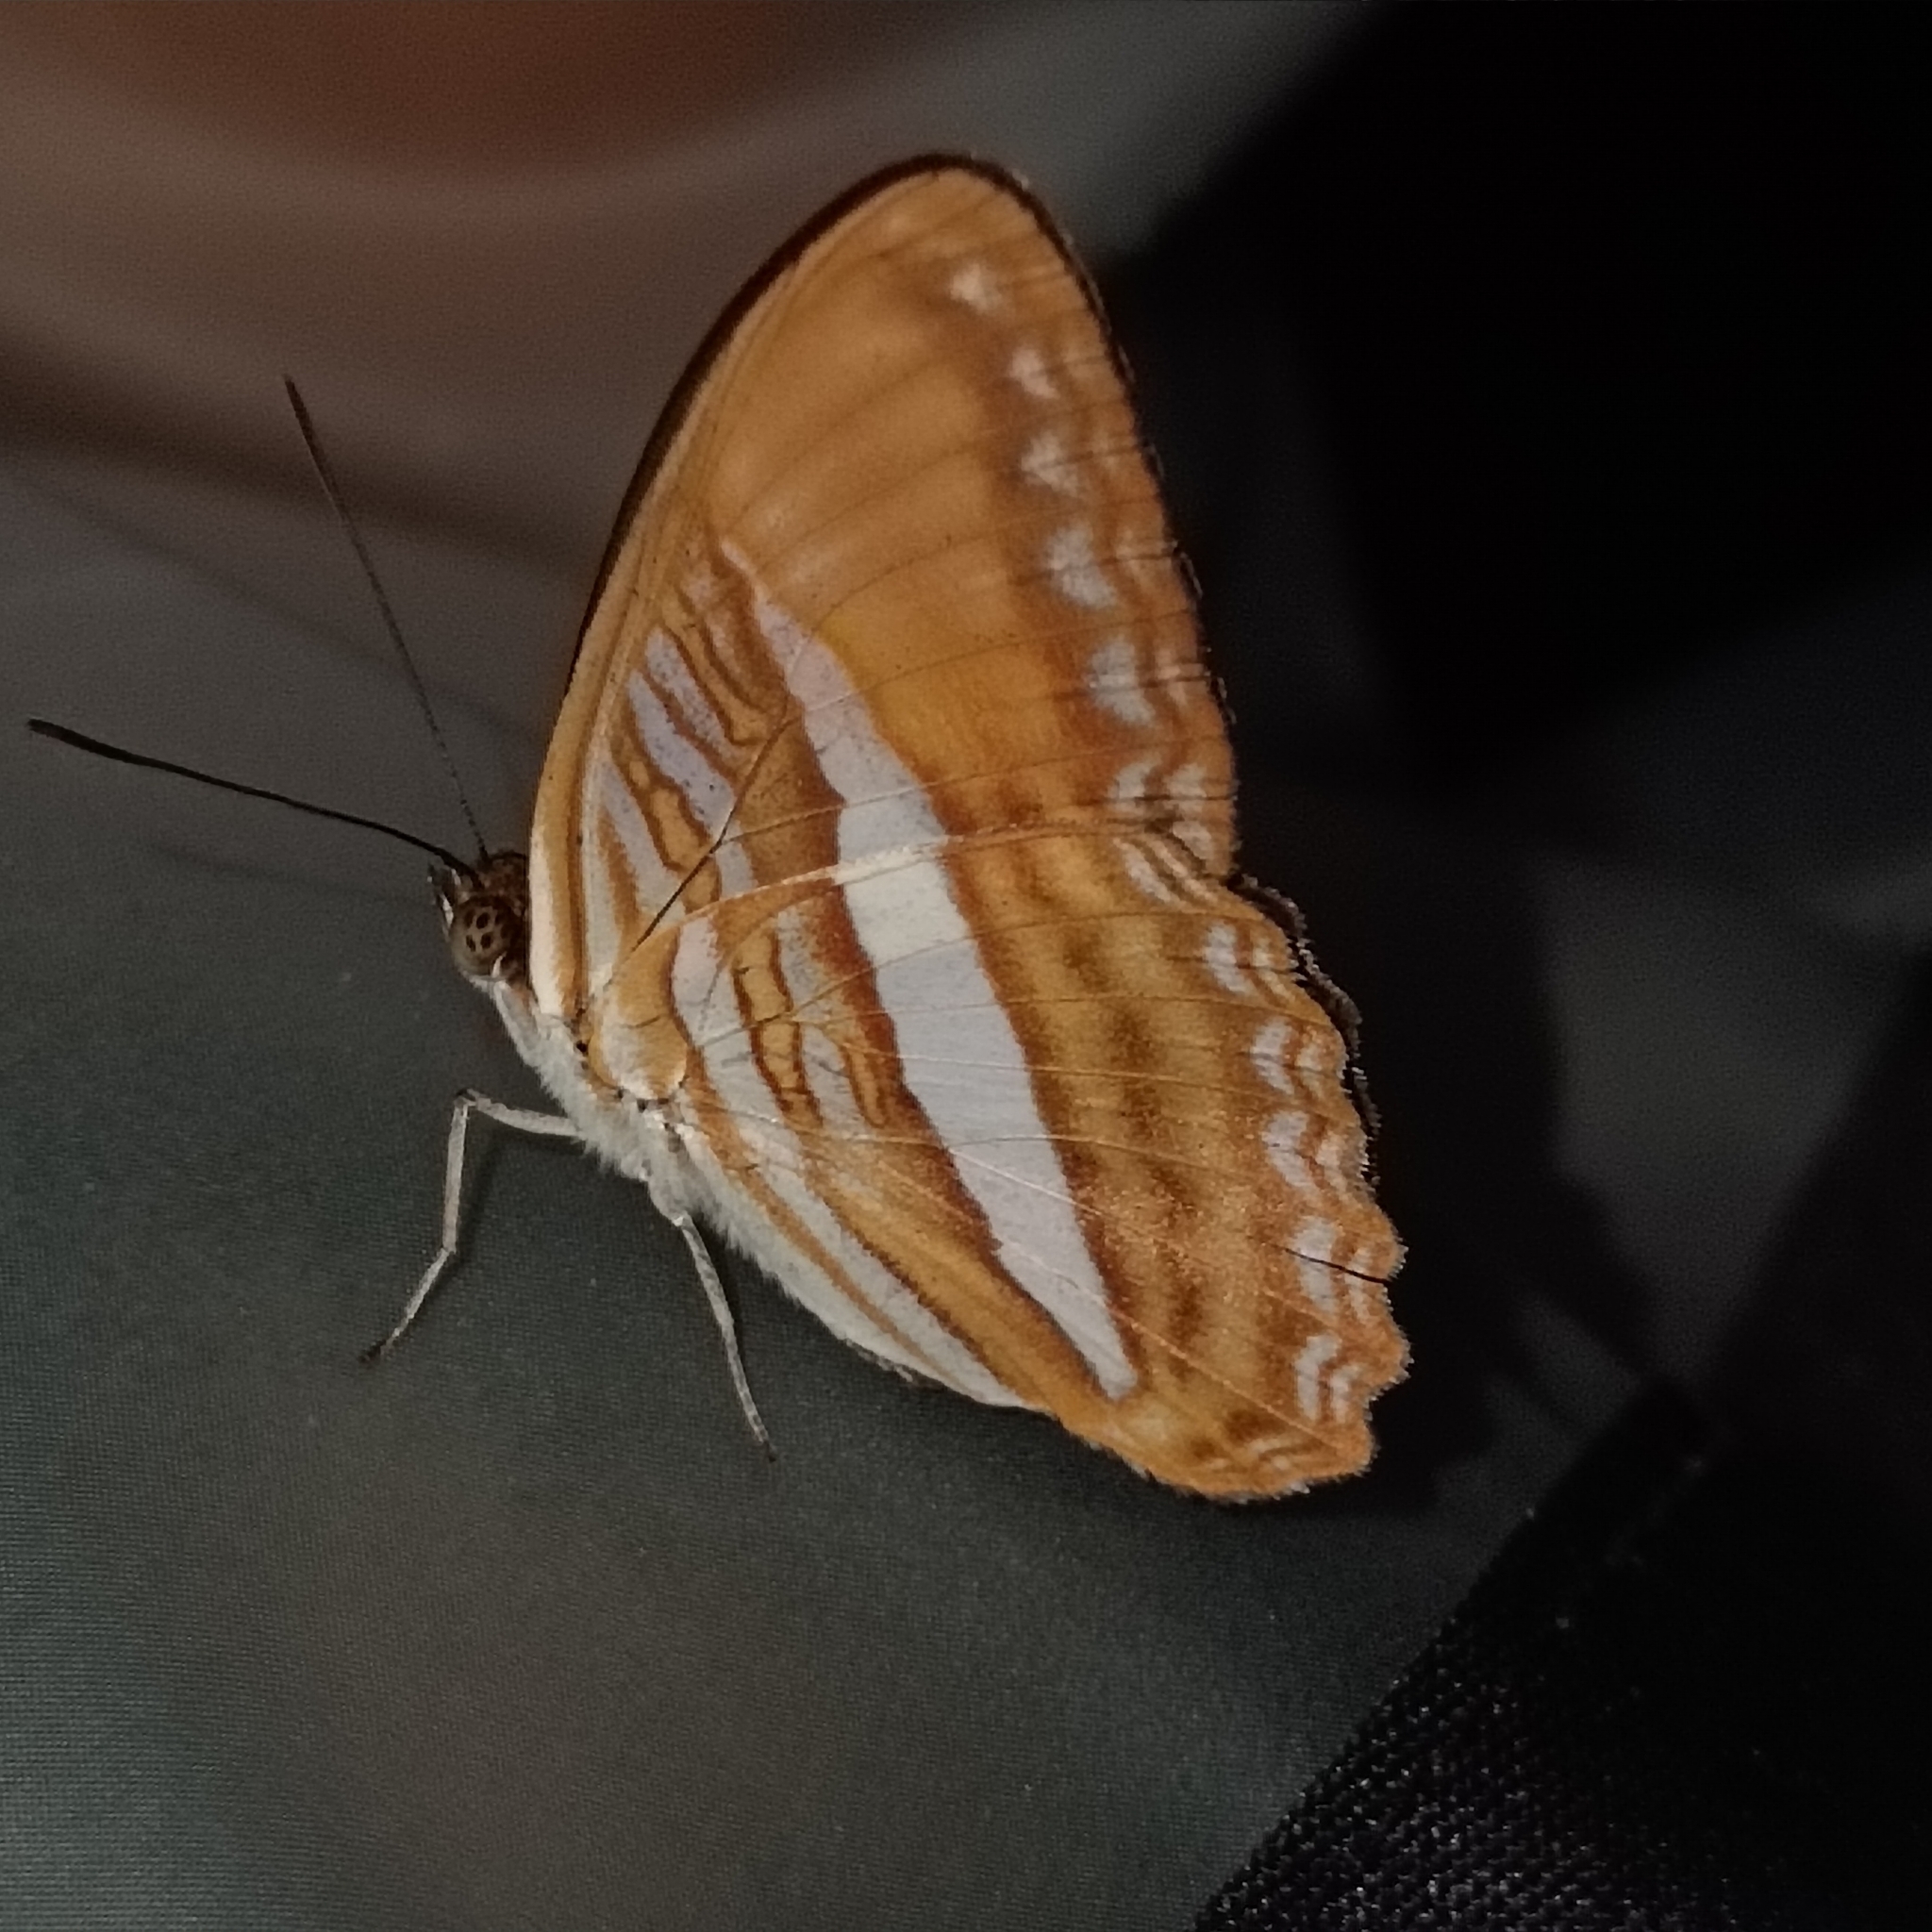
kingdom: Animalia
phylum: Arthropoda
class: Insecta
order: Lepidoptera
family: Nymphalidae
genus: Limenitis
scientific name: Limenitis cytherea
